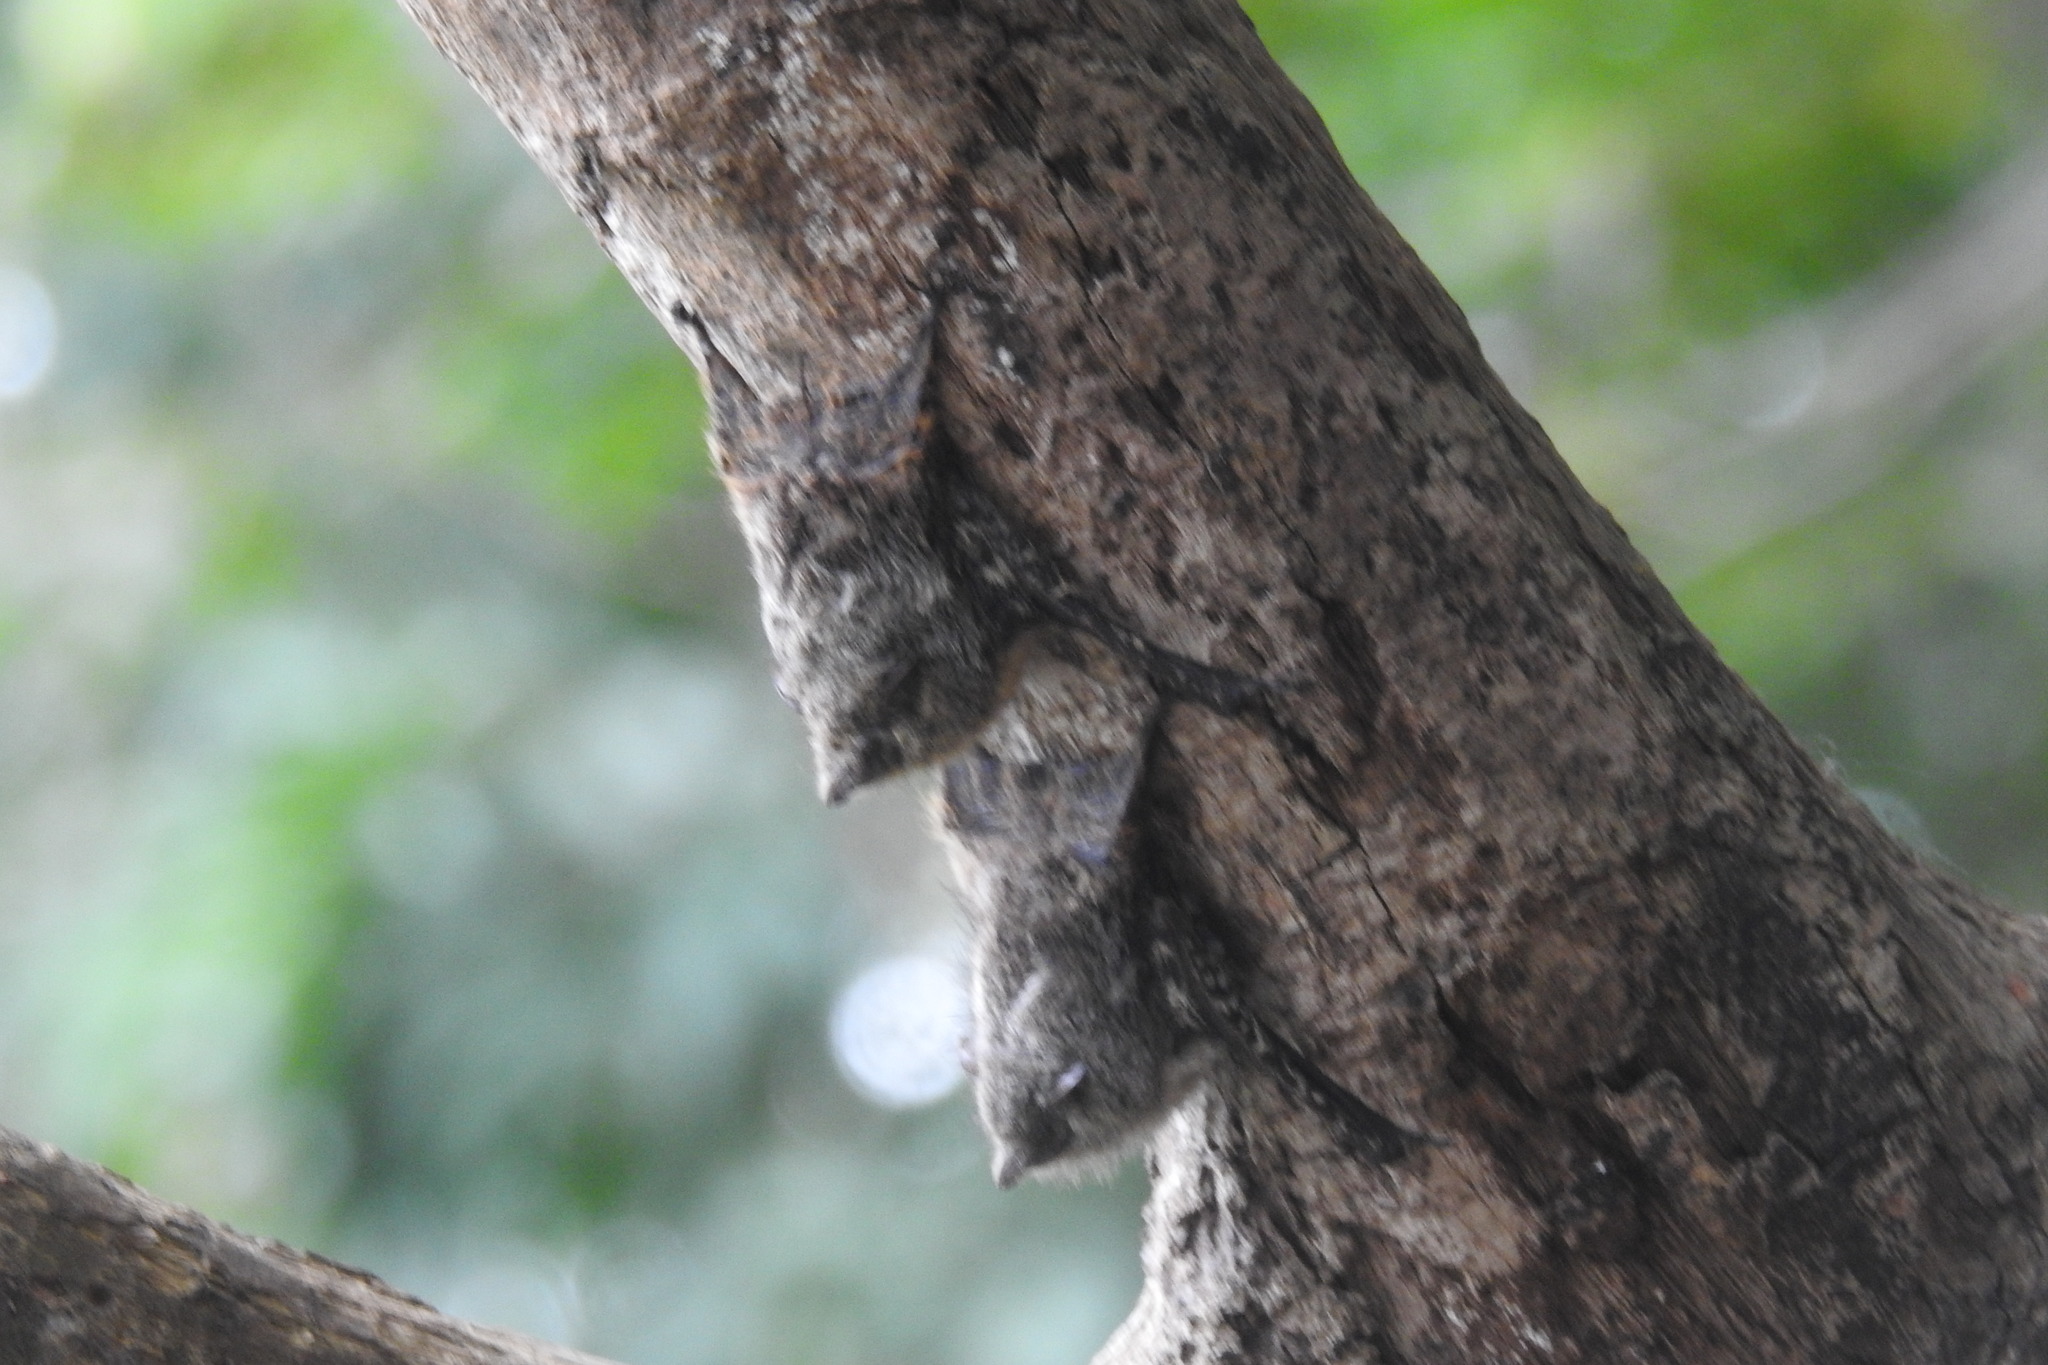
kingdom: Animalia
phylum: Chordata
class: Mammalia
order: Chiroptera
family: Emballonuridae
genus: Rhynchonycteris
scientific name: Rhynchonycteris naso
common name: Proboscis bat
